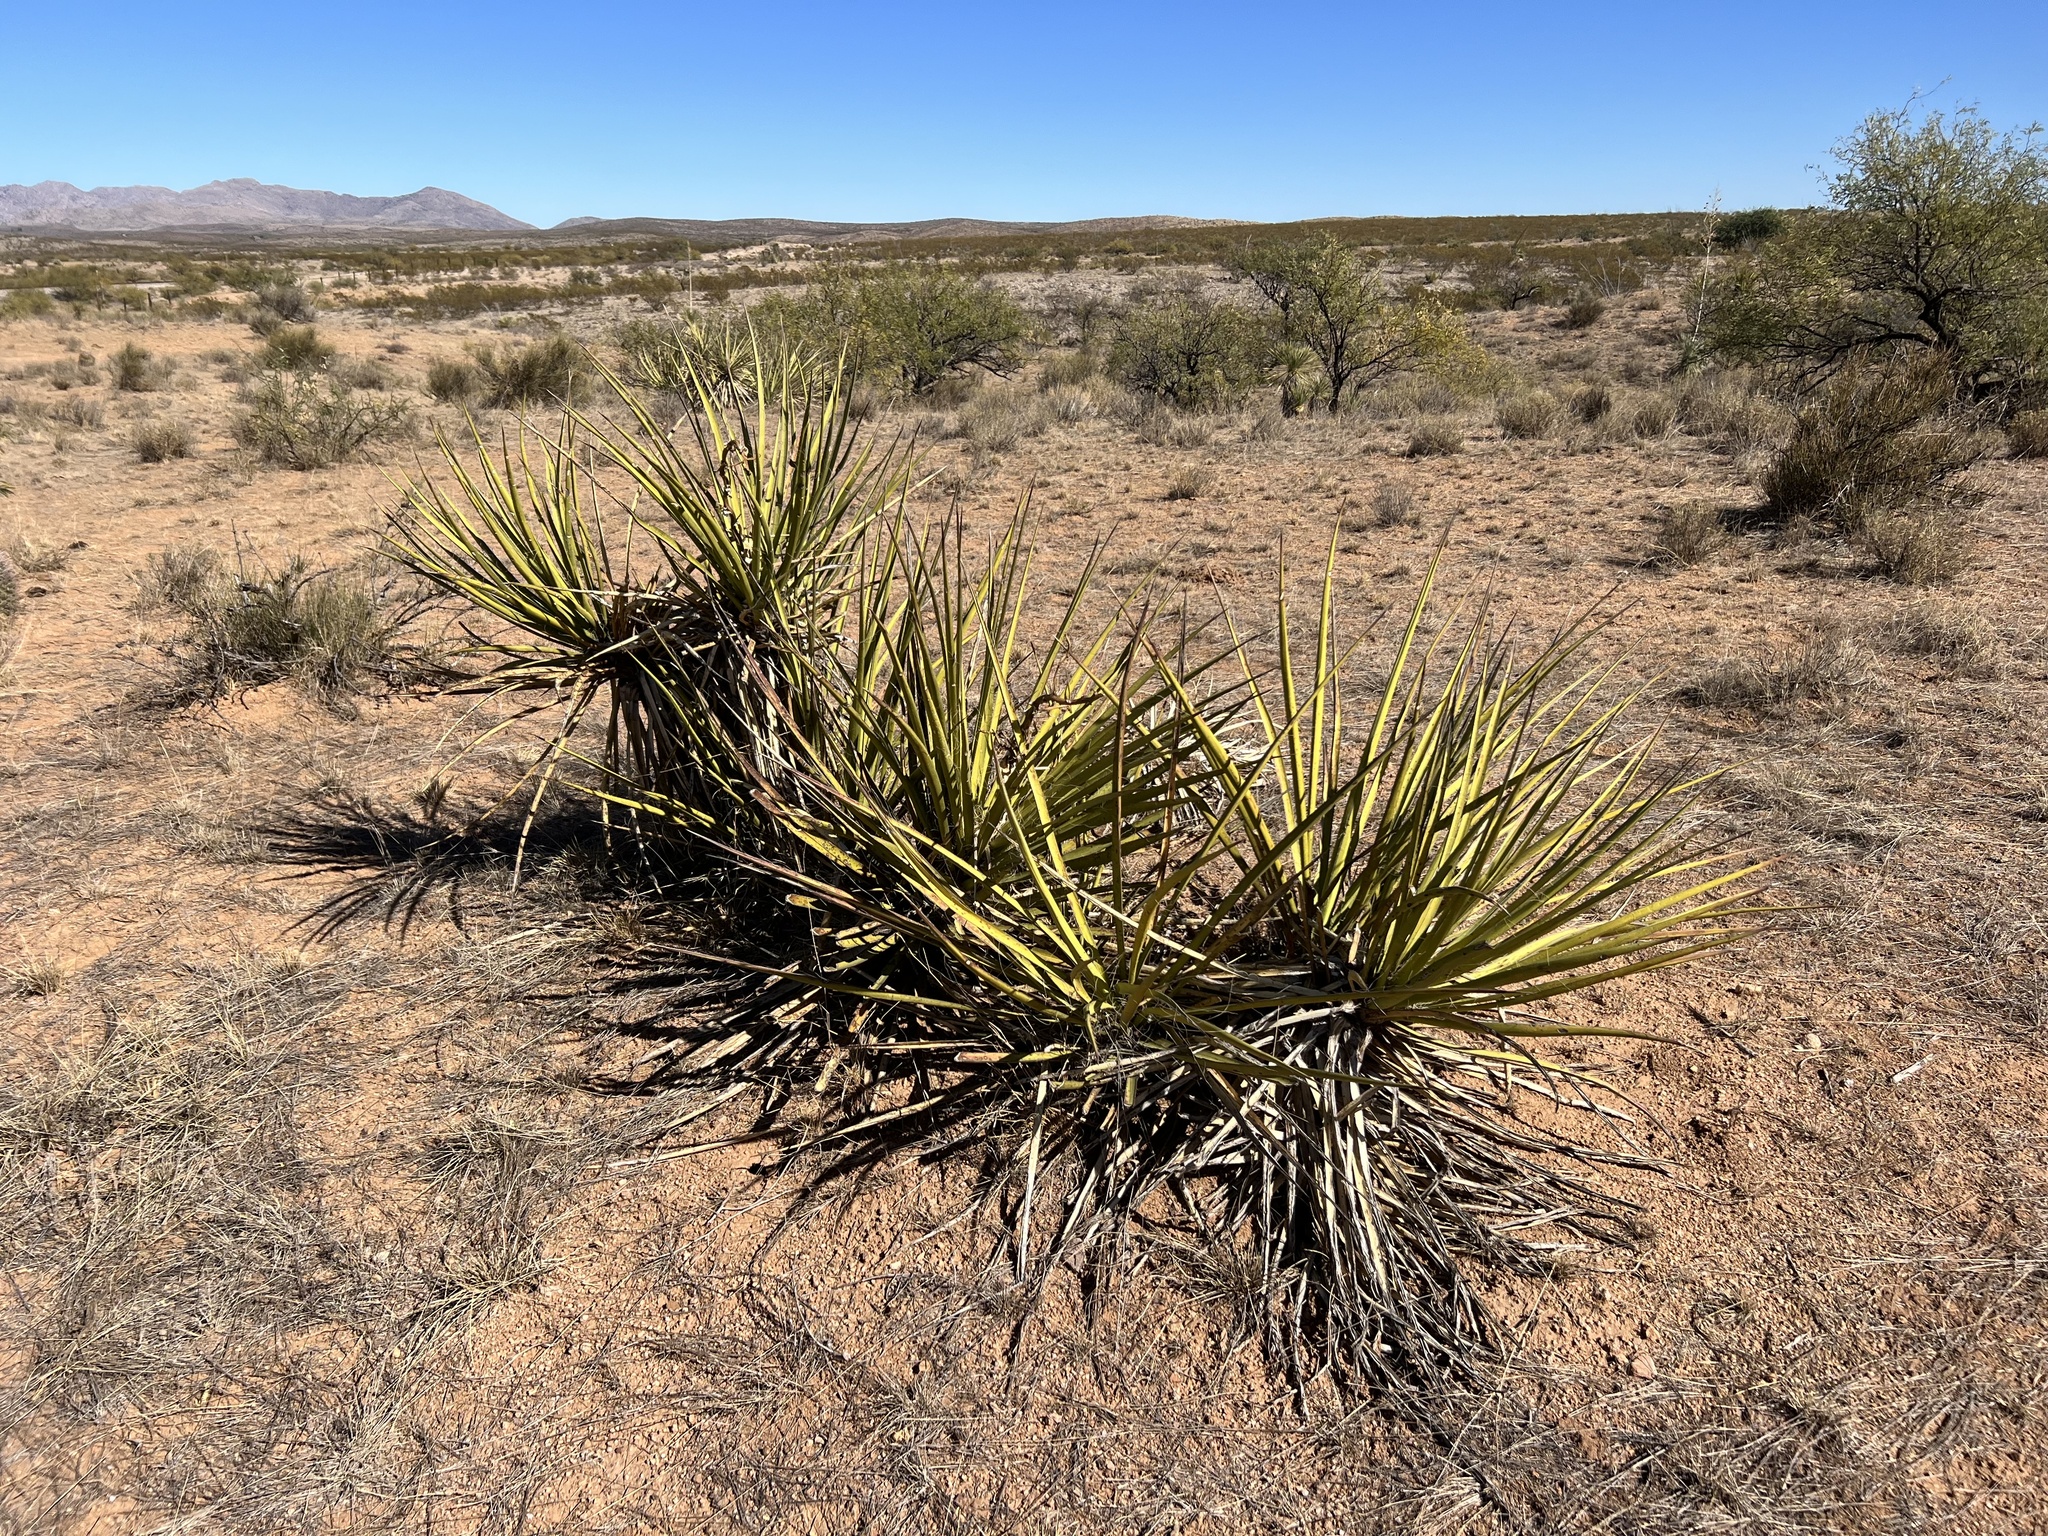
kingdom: Plantae
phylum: Tracheophyta
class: Liliopsida
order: Asparagales
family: Asparagaceae
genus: Yucca
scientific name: Yucca baccata
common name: Banana yucca
